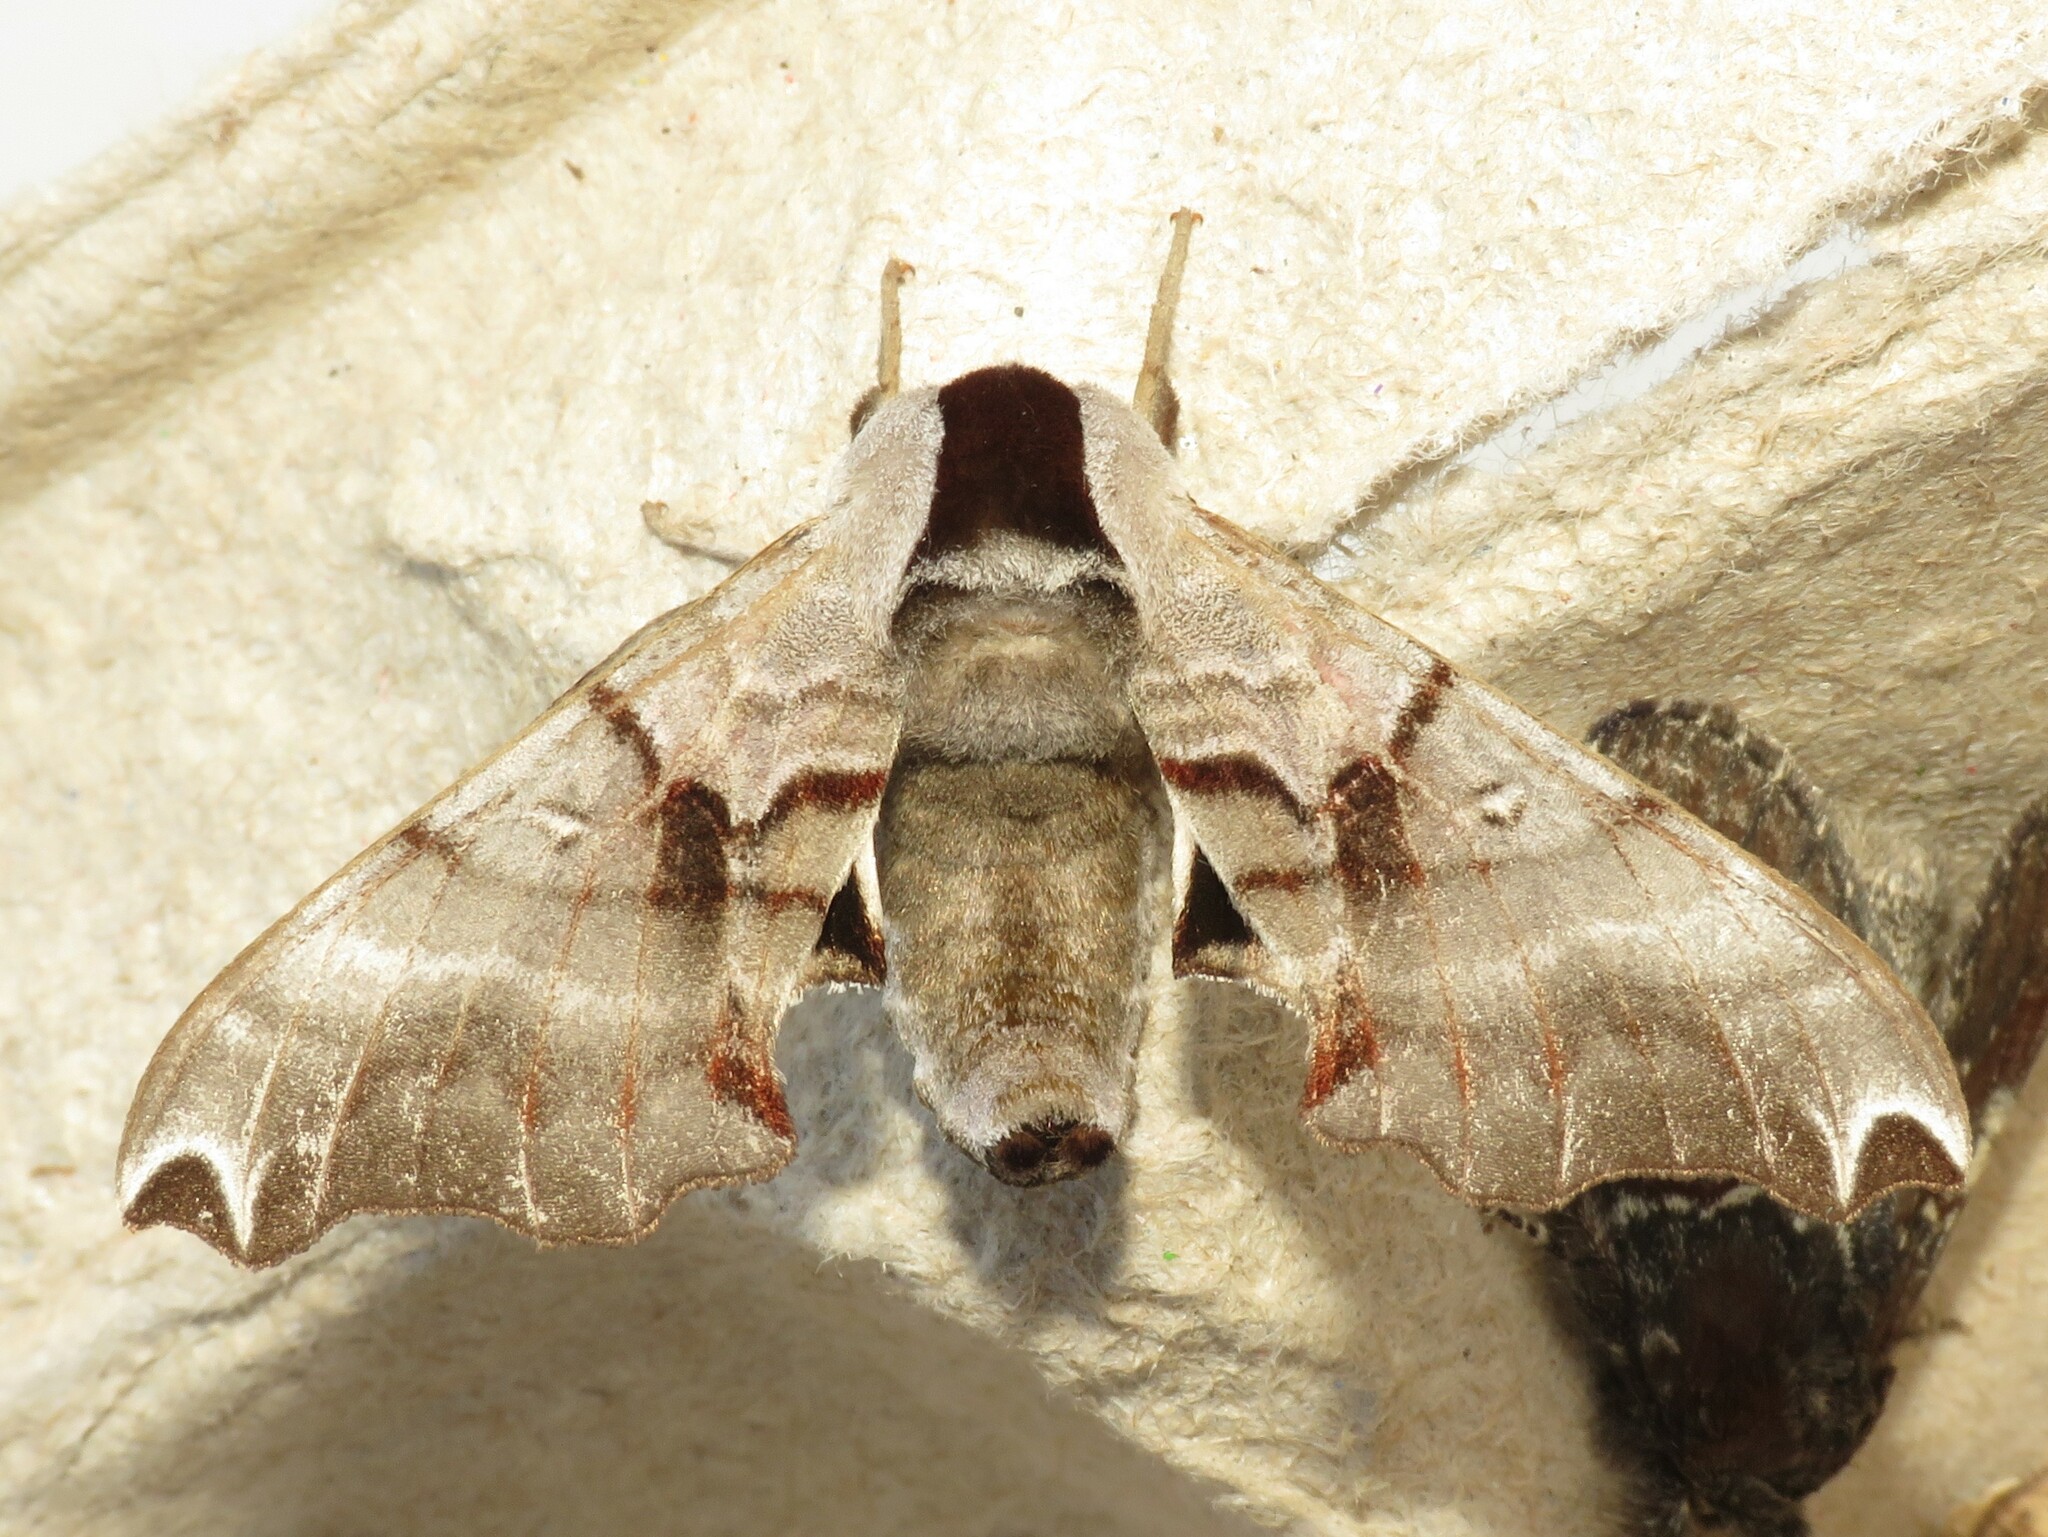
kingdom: Animalia
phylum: Arthropoda
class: Insecta
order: Lepidoptera
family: Sphingidae
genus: Smerinthus
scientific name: Smerinthus jamaicensis
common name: Twin spotted sphinx
